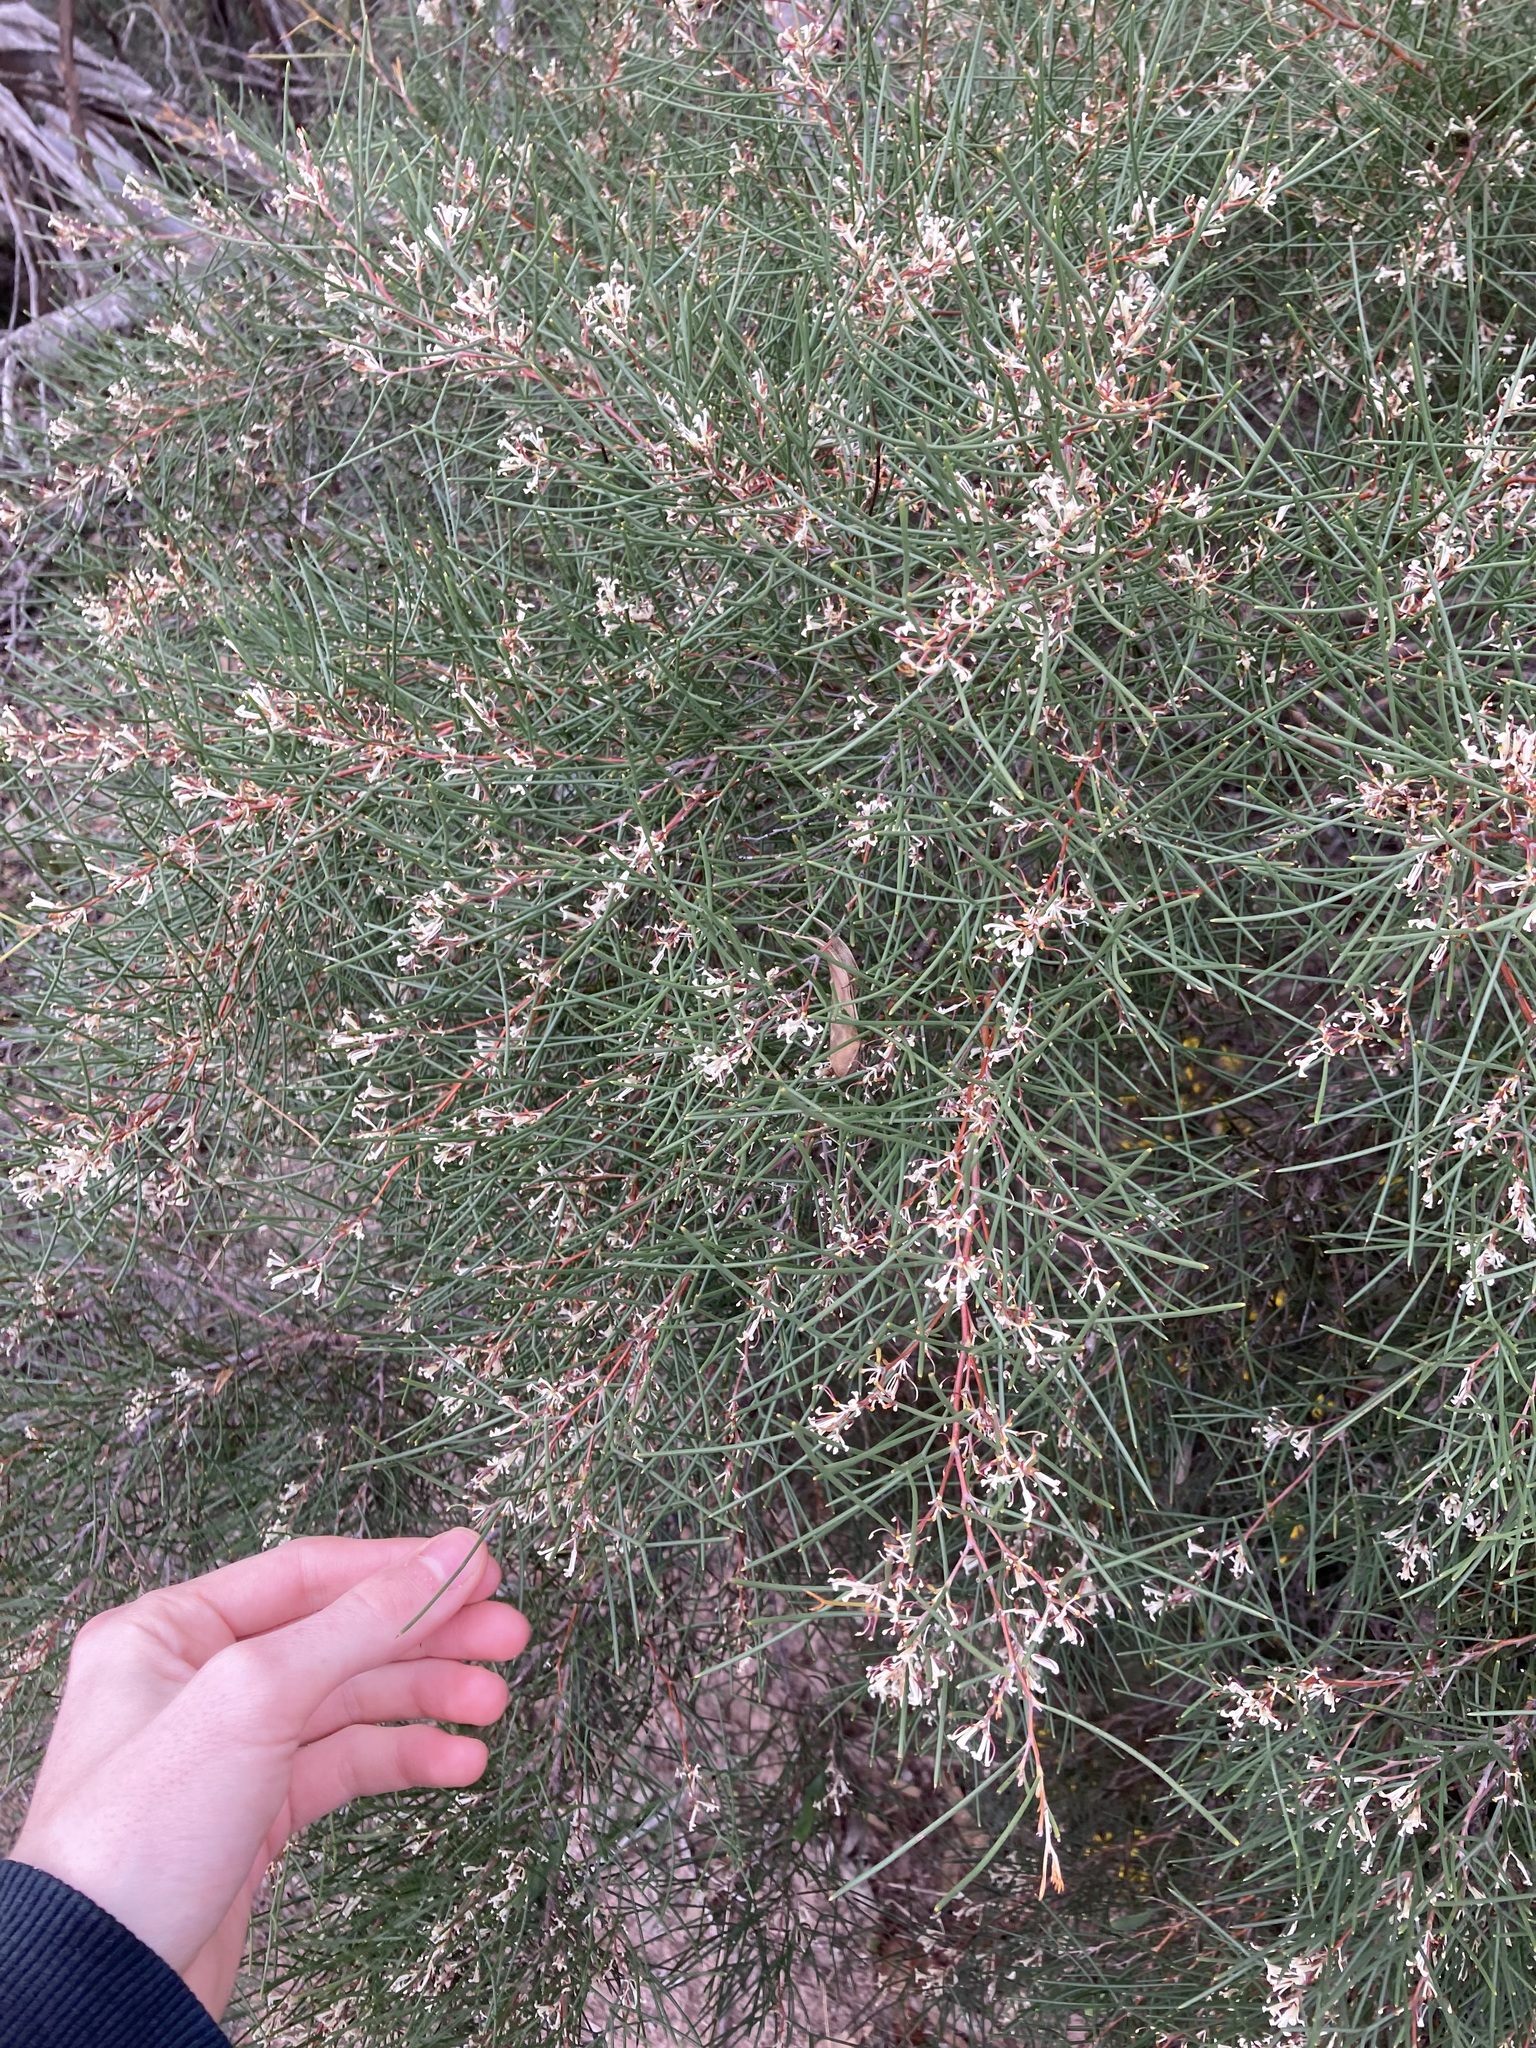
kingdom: Plantae
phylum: Tracheophyta
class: Magnoliopsida
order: Proteales
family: Proteaceae
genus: Hakea
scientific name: Hakea trifurcata
